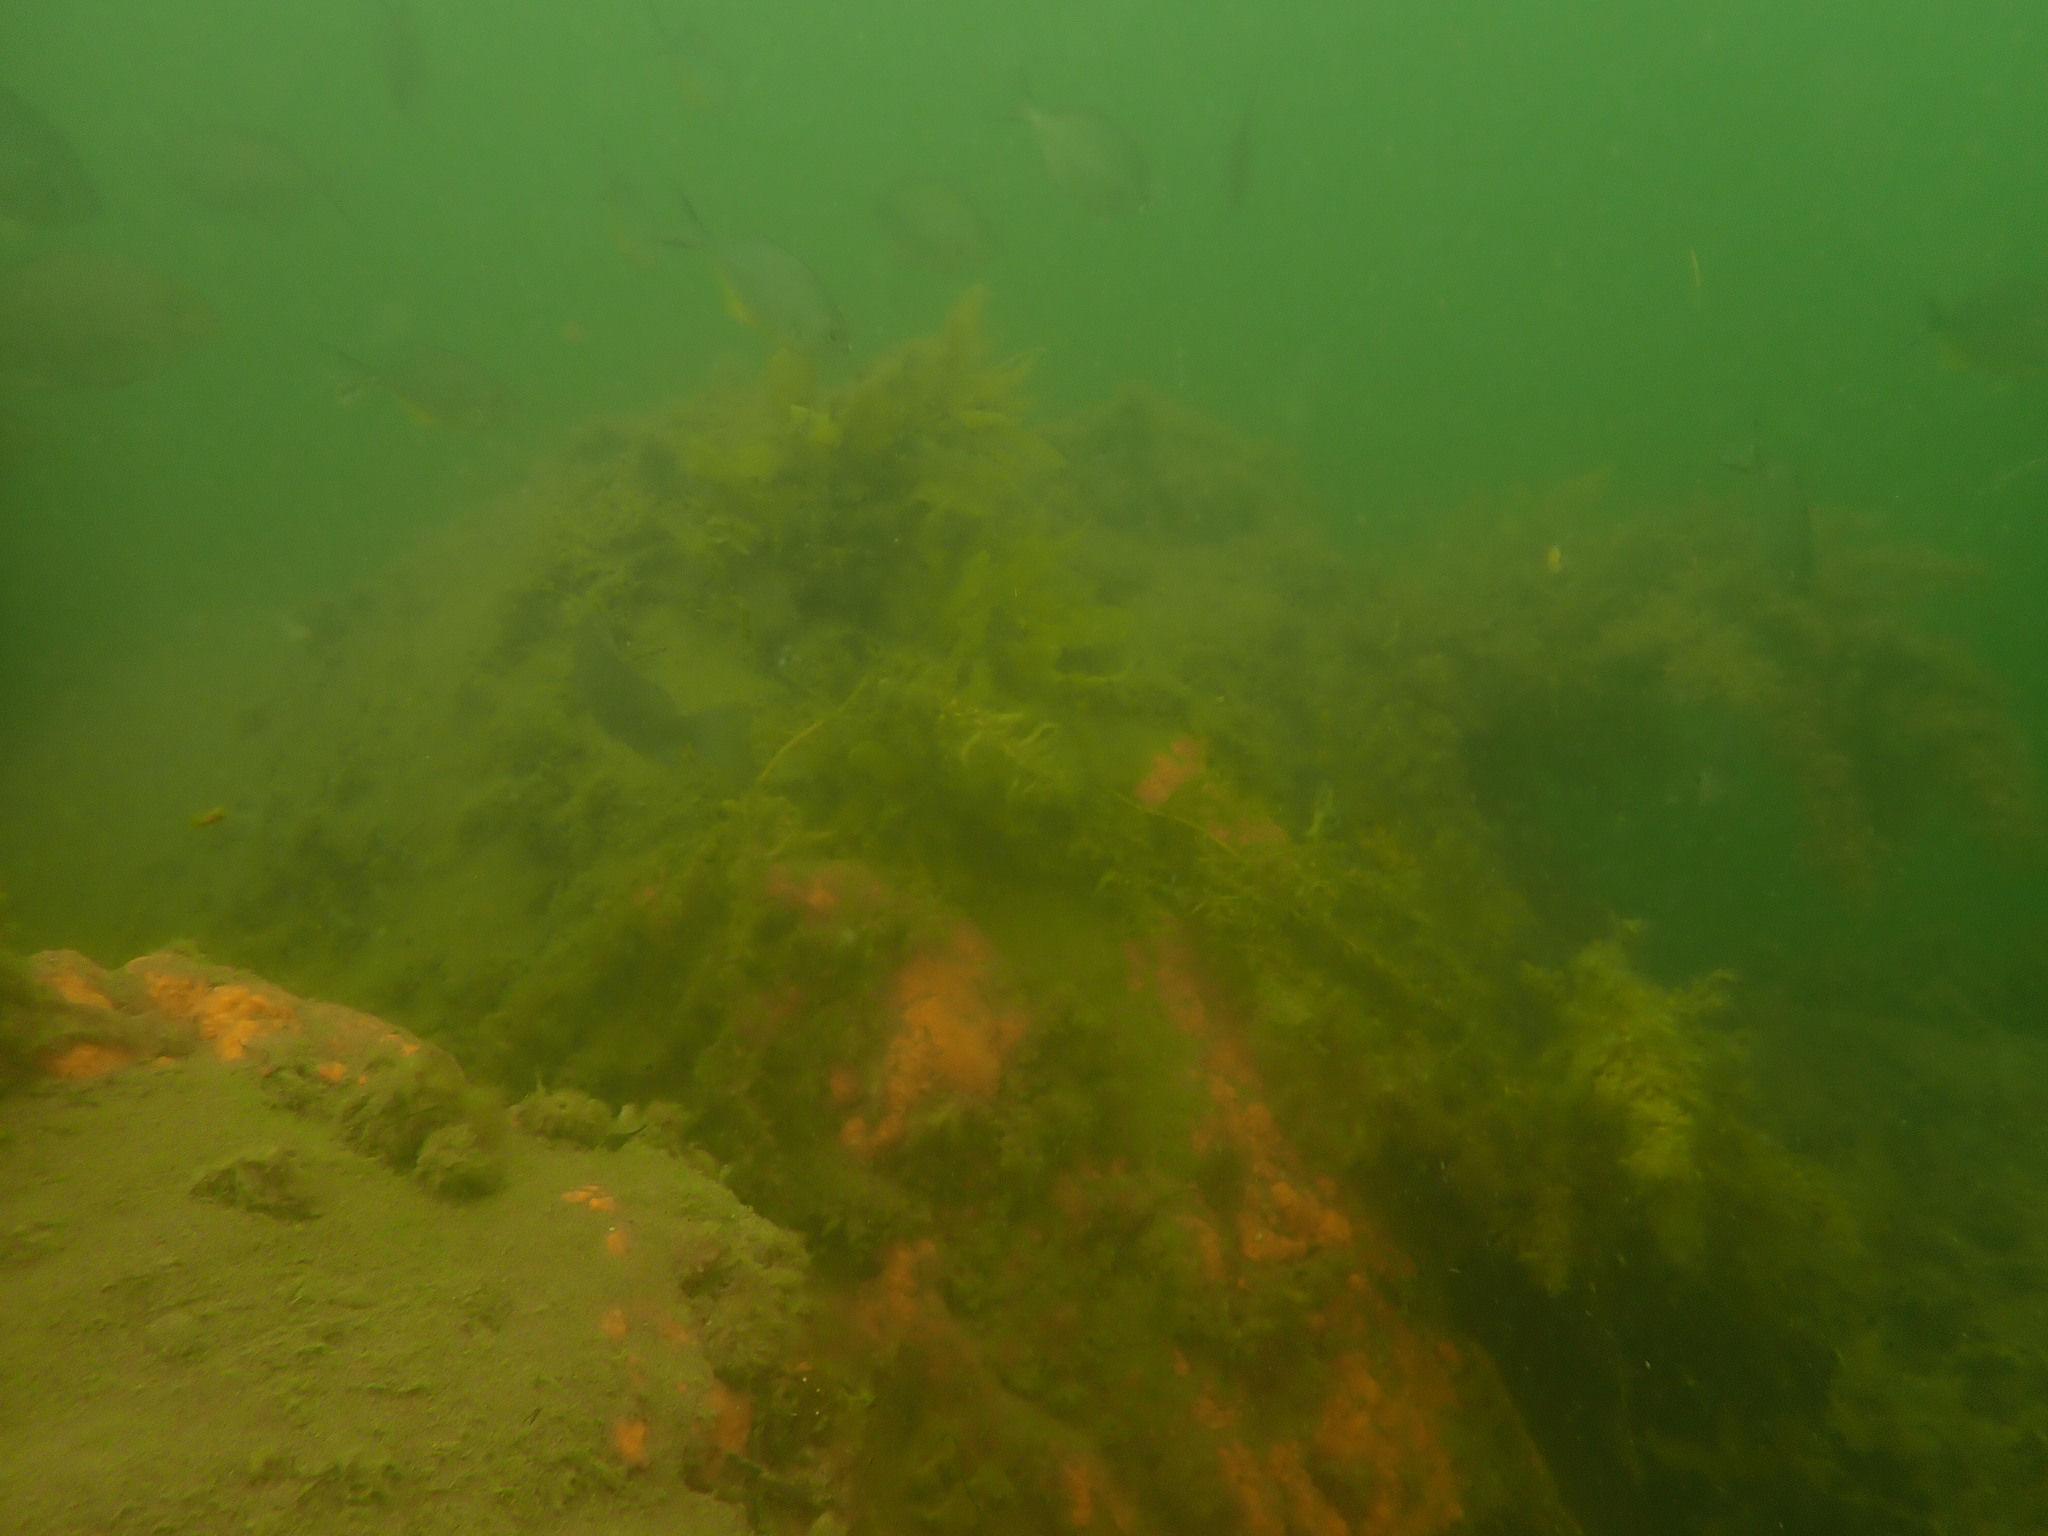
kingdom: Chromista
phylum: Ochrophyta
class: Phaeophyceae
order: Fucales
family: Sargassaceae
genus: Sargassum
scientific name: Sargassum sinclairii
